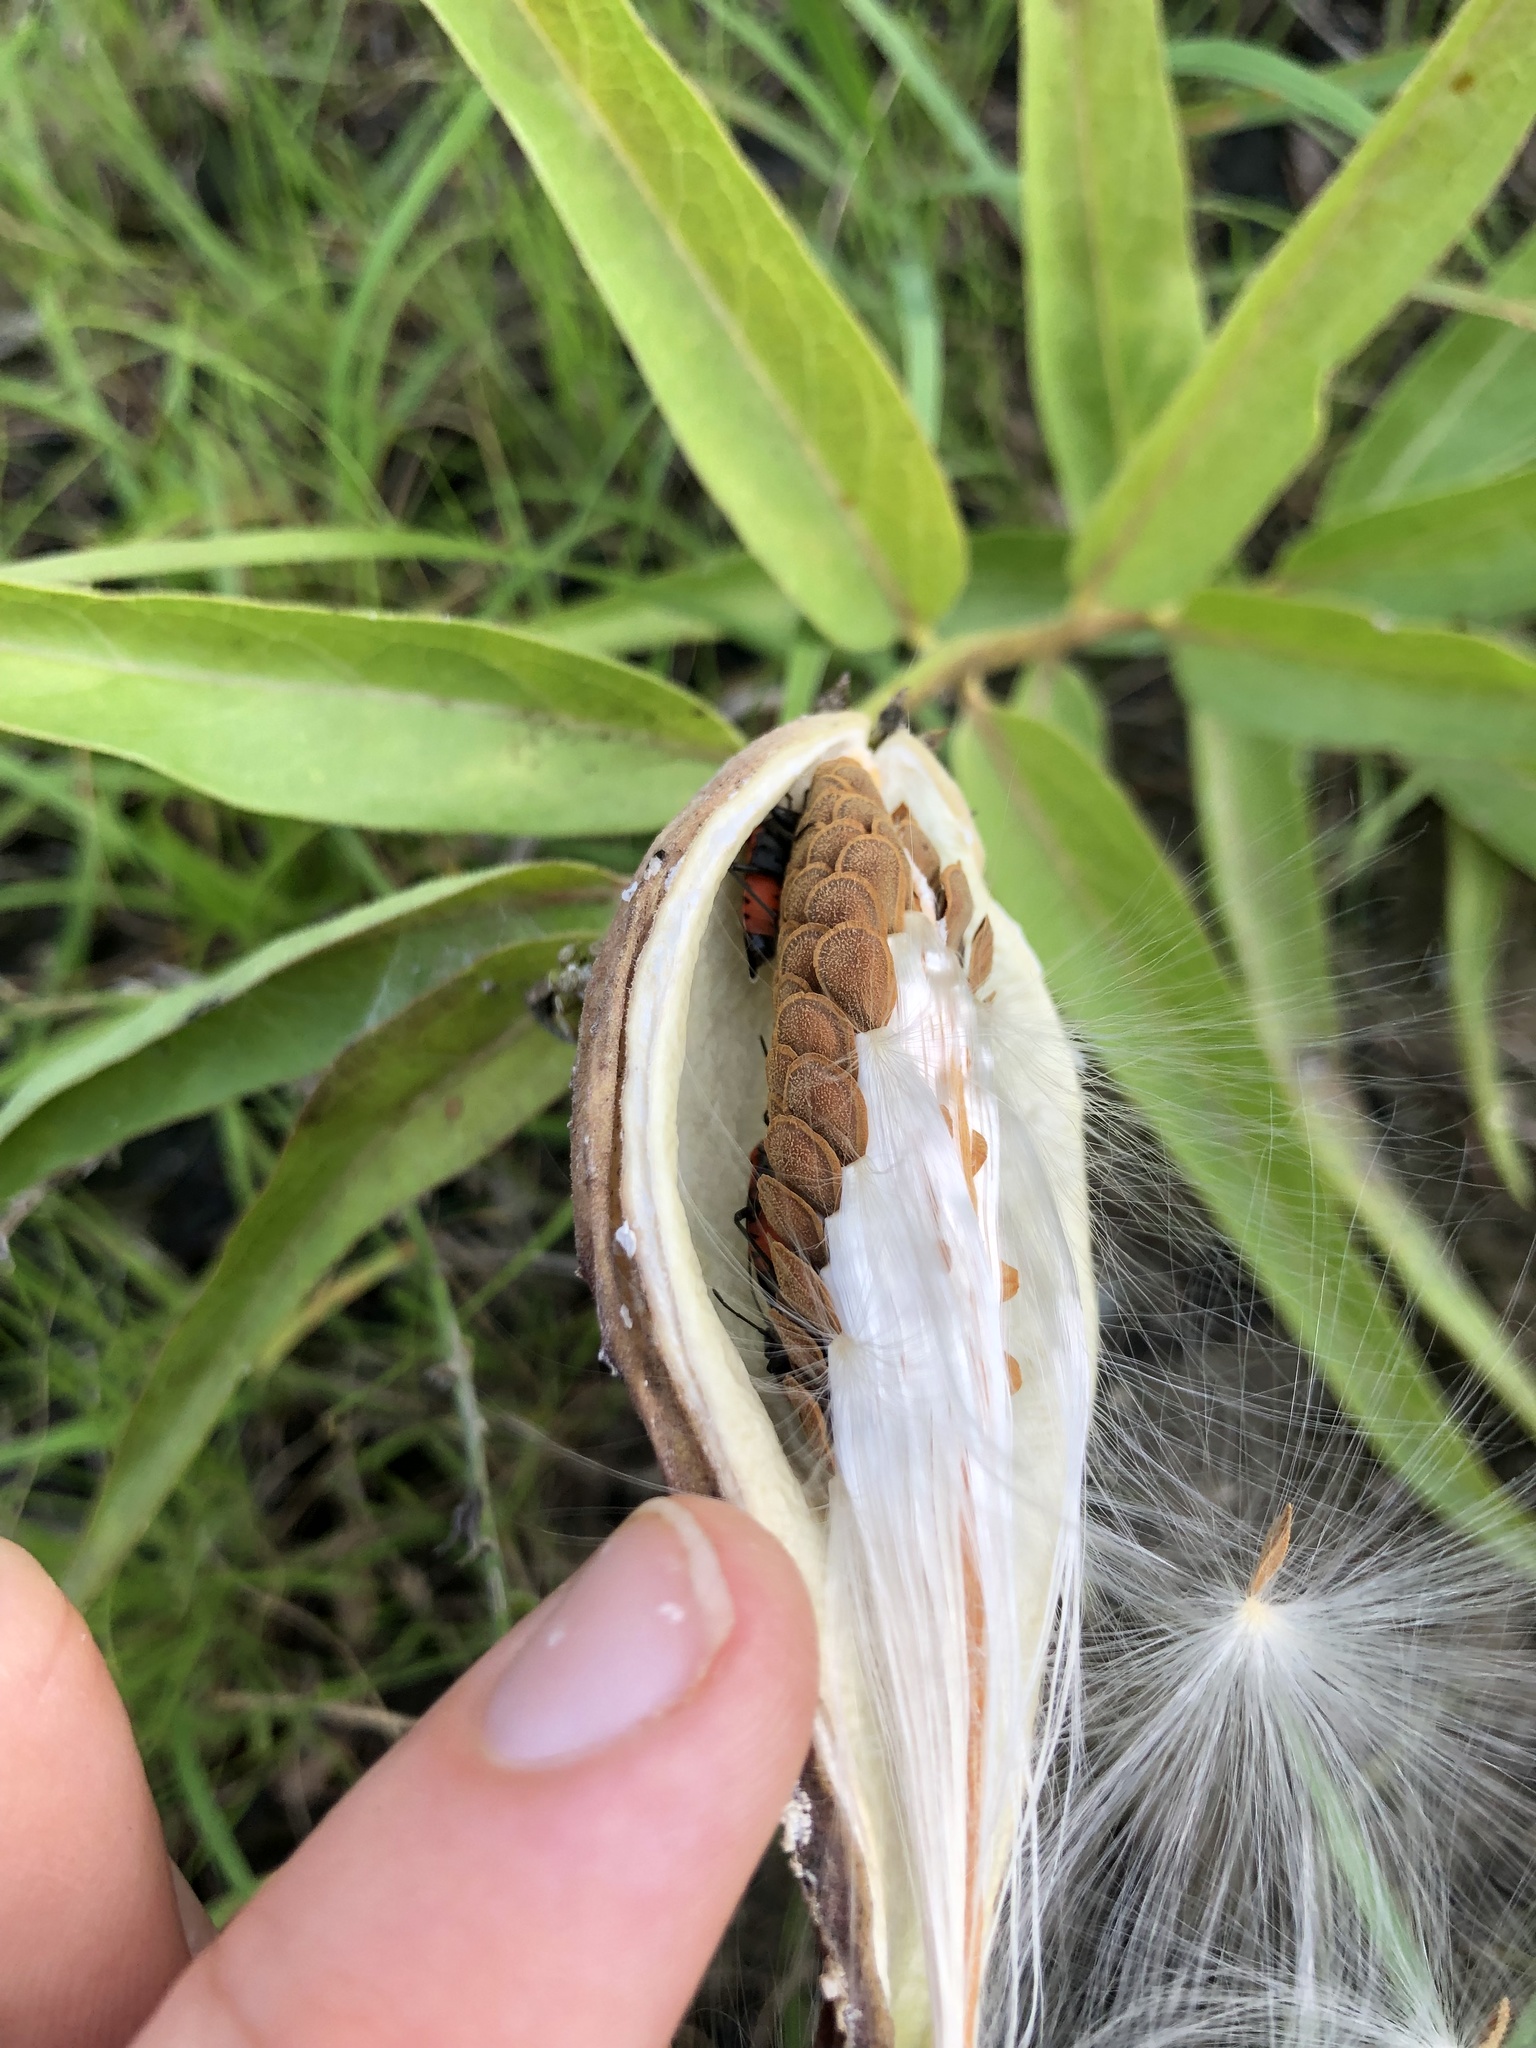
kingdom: Plantae
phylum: Tracheophyta
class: Magnoliopsida
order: Gentianales
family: Apocynaceae
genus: Asclepias
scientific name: Asclepias asperula
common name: Antelope horns
